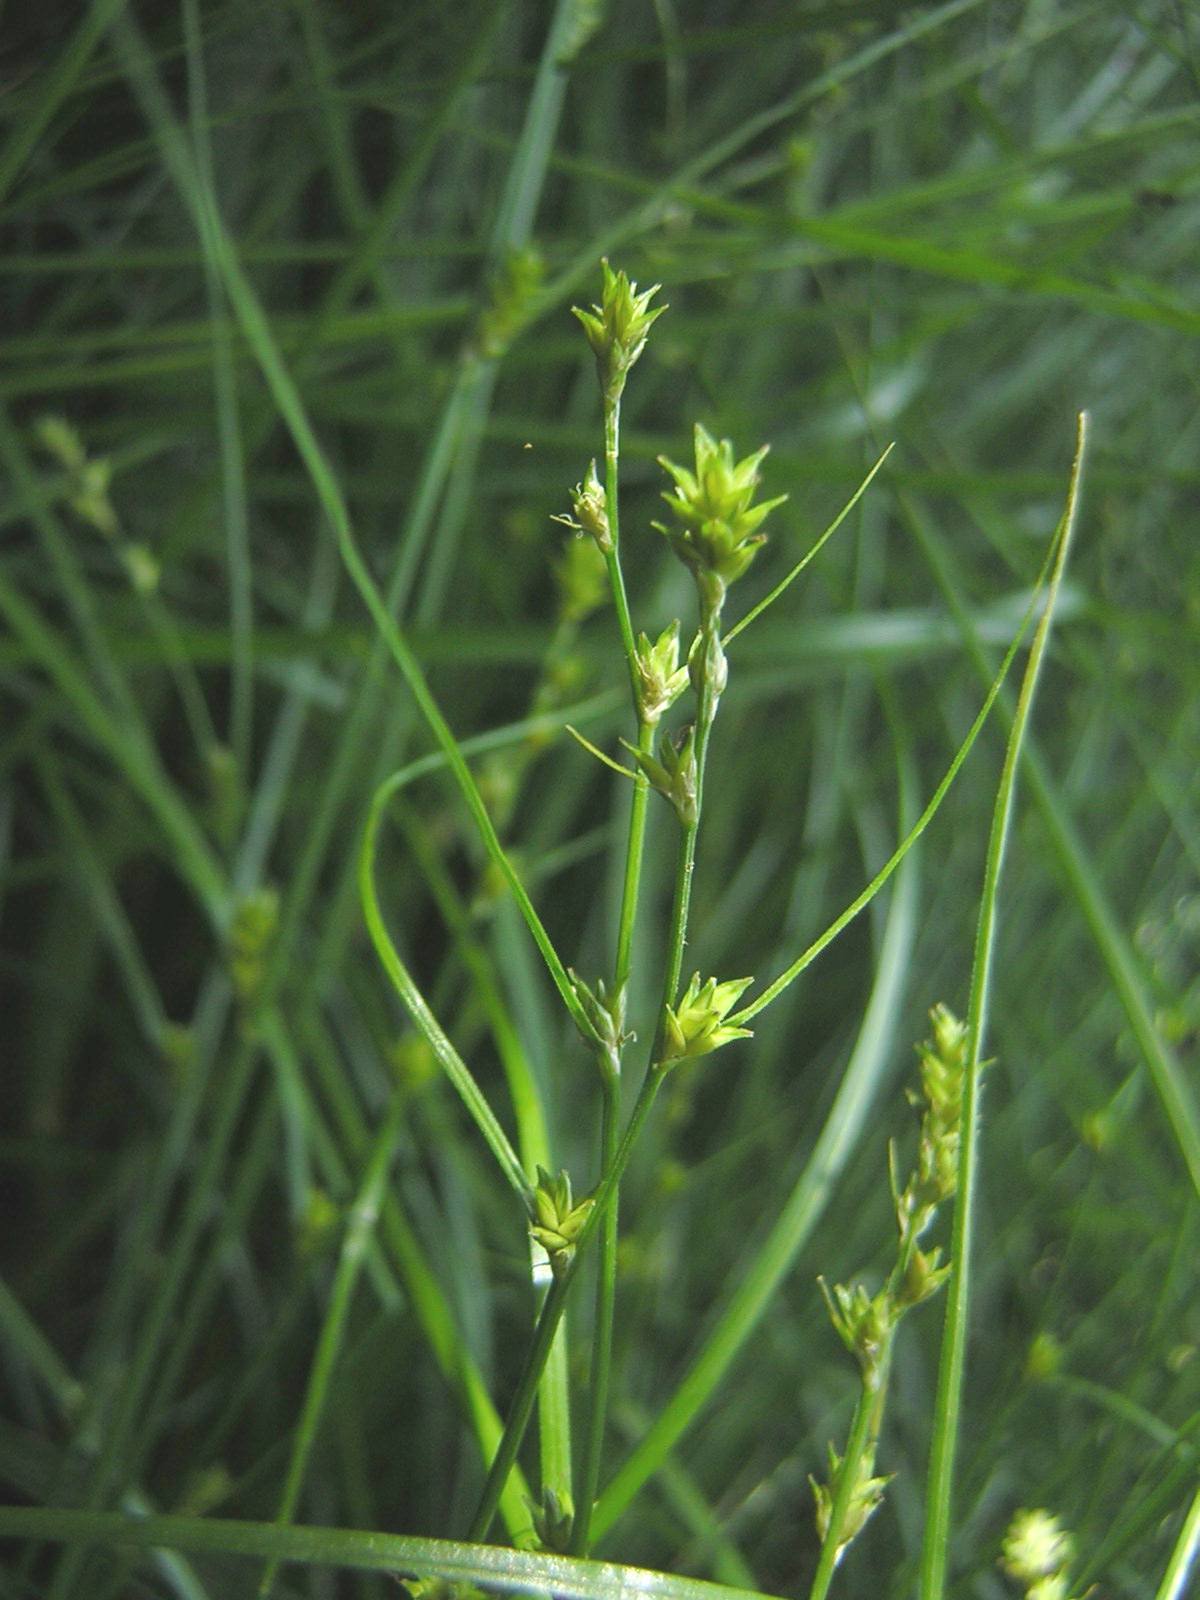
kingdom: Plantae
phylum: Tracheophyta
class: Liliopsida
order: Poales
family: Cyperaceae
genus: Carex
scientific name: Carex remota
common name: Remote sedge
